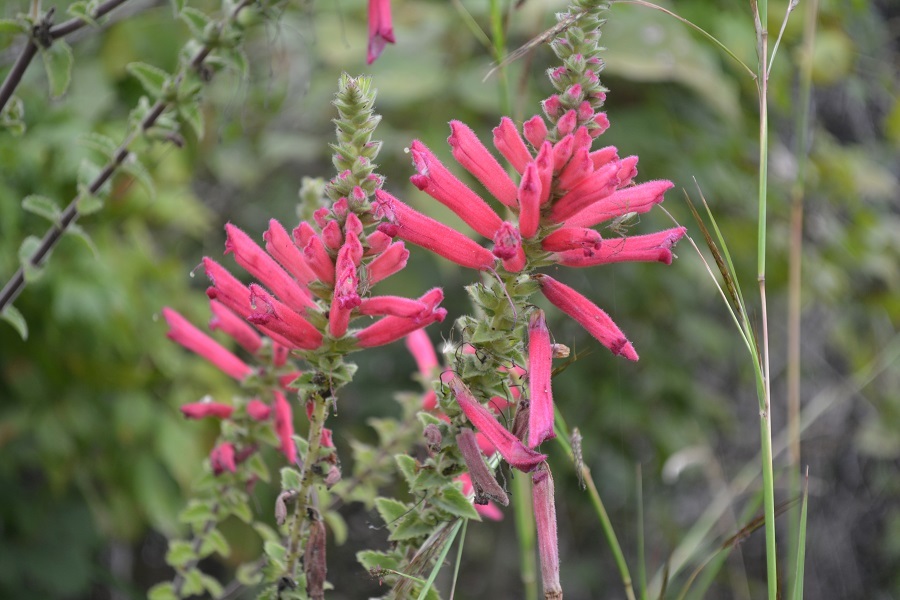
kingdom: Plantae
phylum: Tracheophyta
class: Magnoliopsida
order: Lamiales
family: Orobanchaceae
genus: Lamourouxia
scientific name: Lamourouxia viscosa
